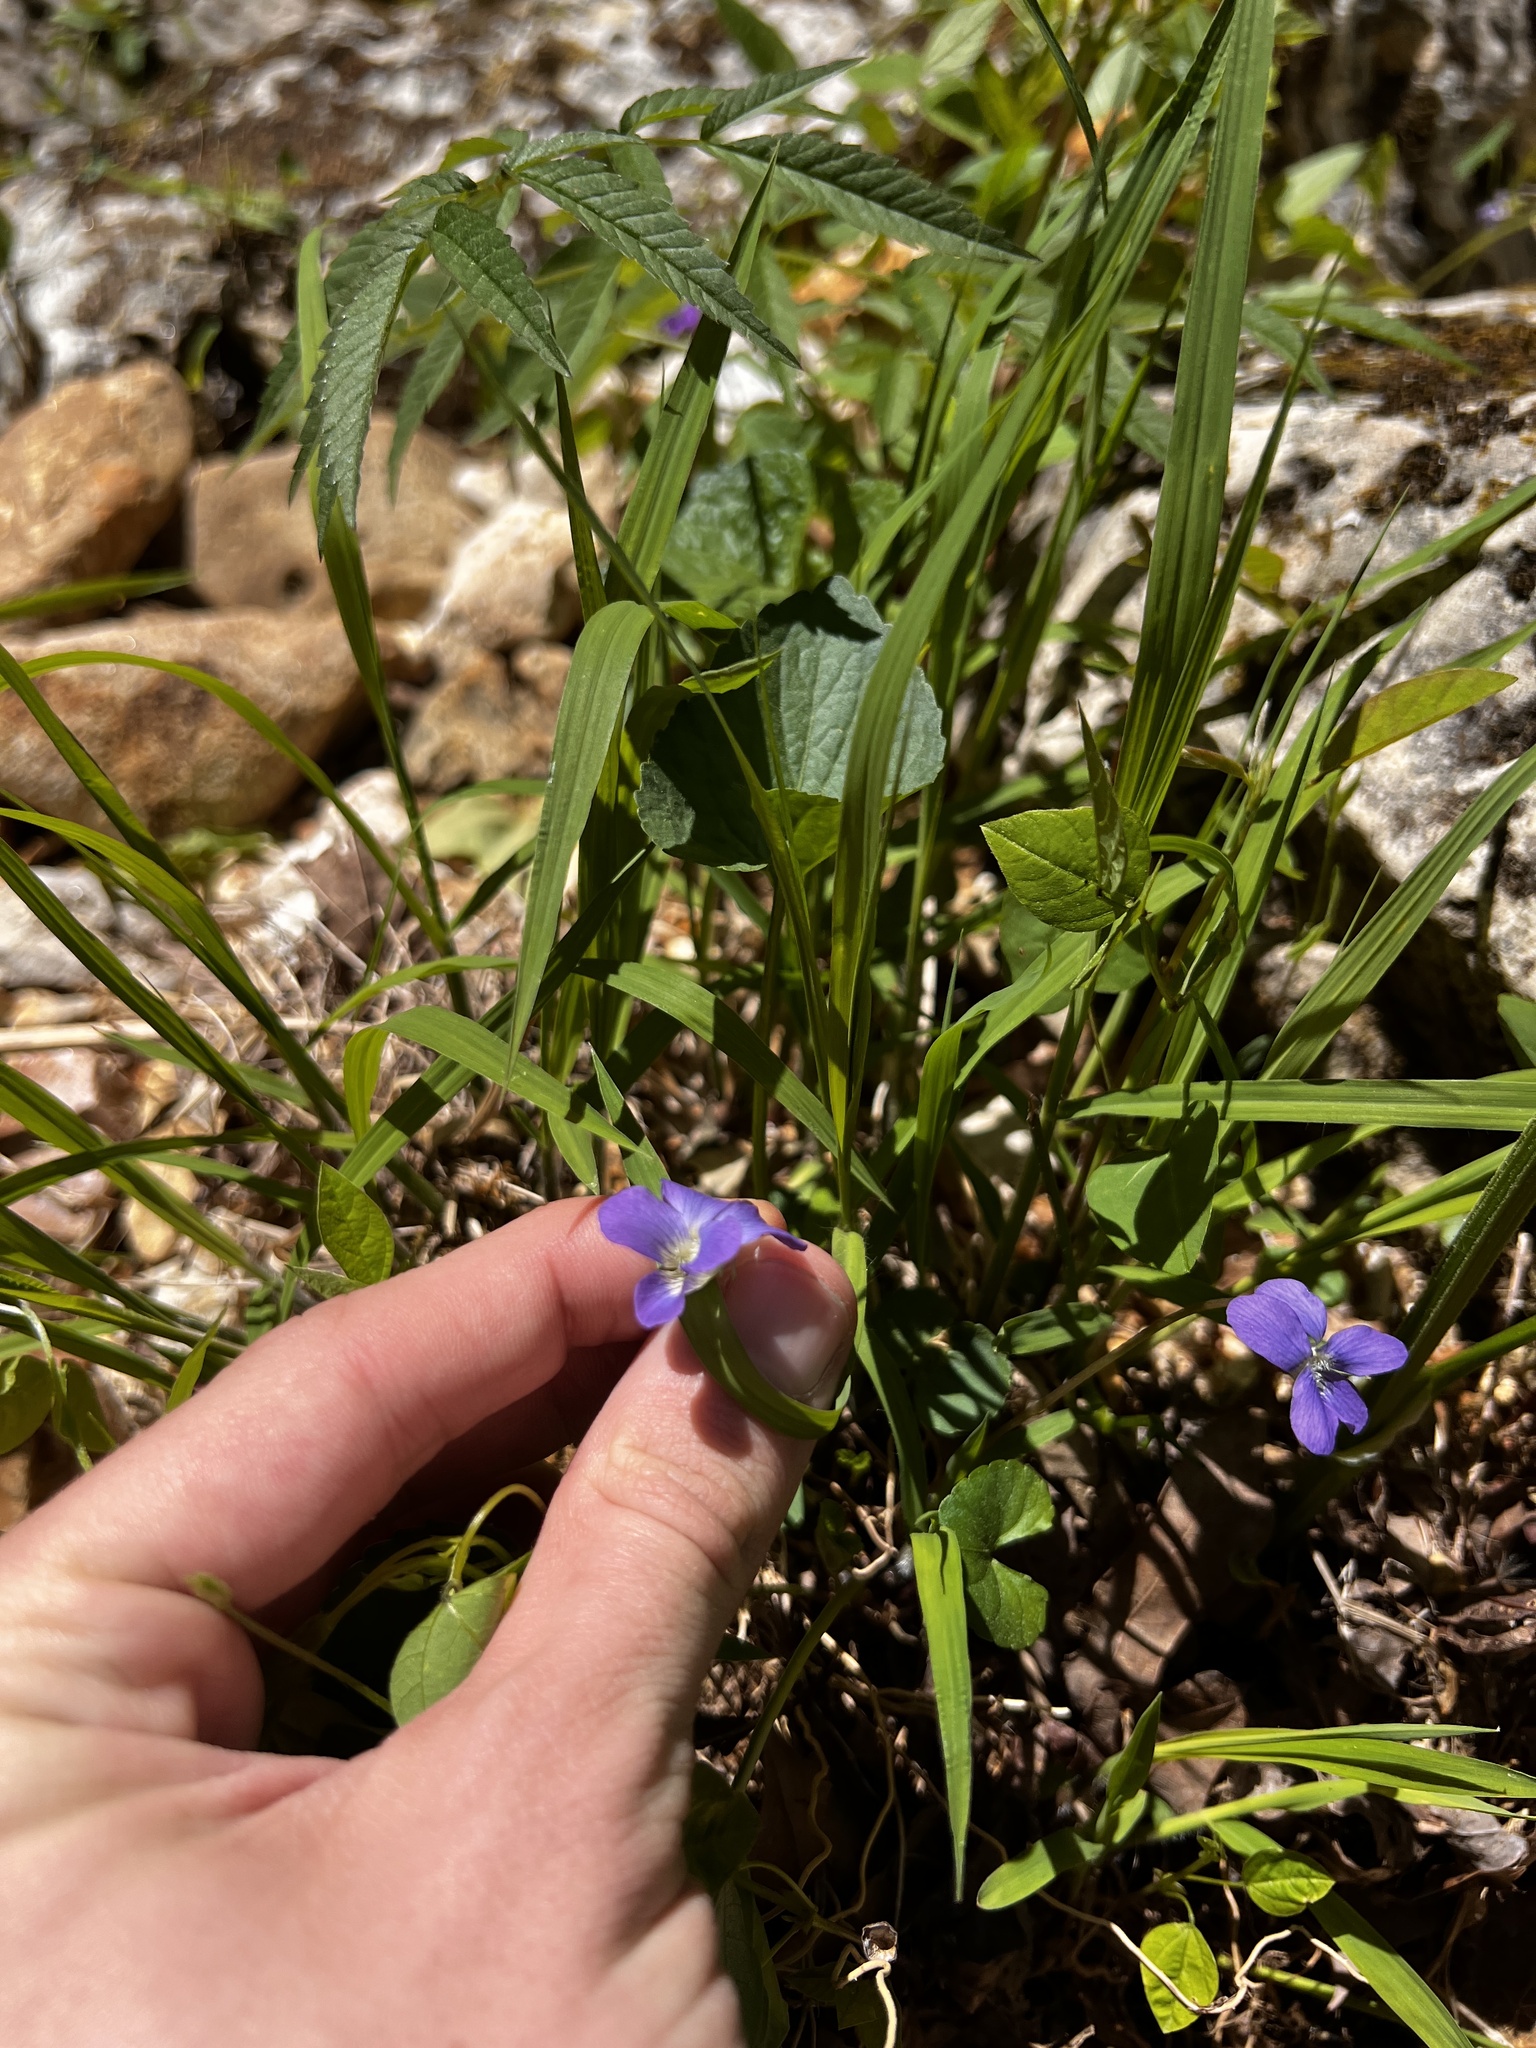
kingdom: Plantae
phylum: Tracheophyta
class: Magnoliopsida
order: Malpighiales
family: Violaceae
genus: Viola
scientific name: Viola affinis
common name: Leconte's violet
